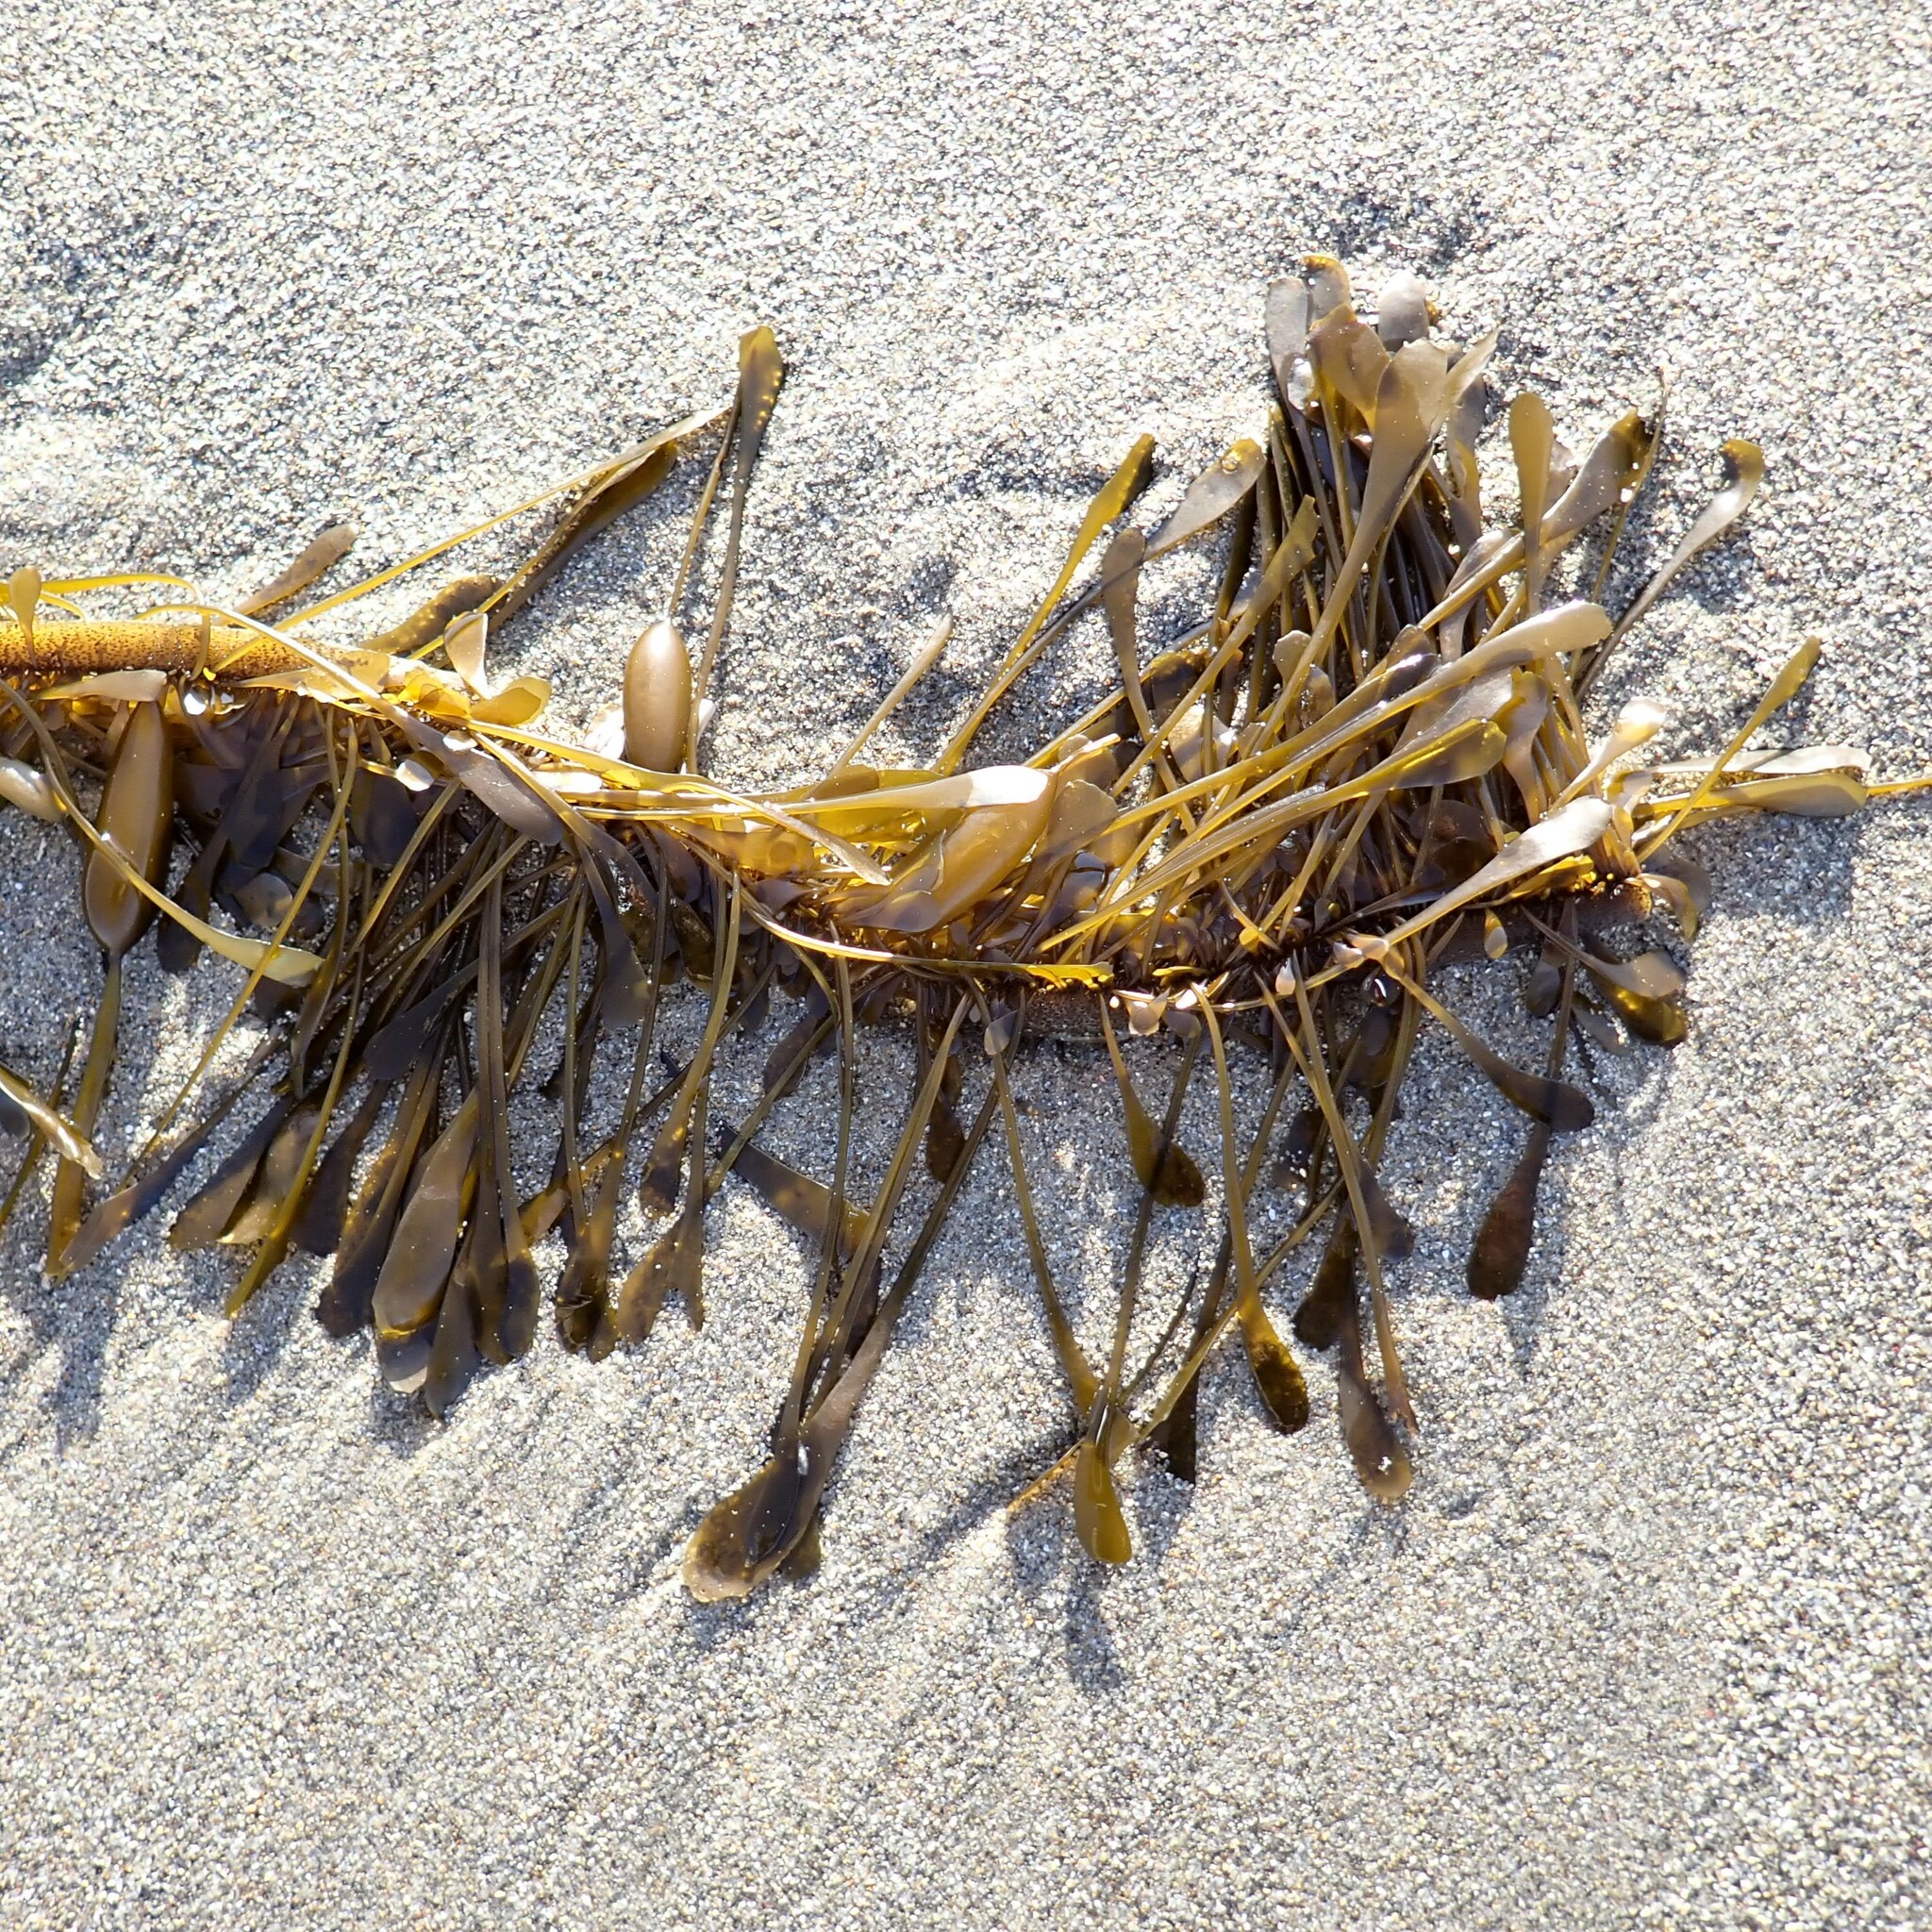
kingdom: Chromista
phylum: Ochrophyta
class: Phaeophyceae
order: Laminariales
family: Lessoniaceae
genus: Egregia
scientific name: Egregia menziesii
